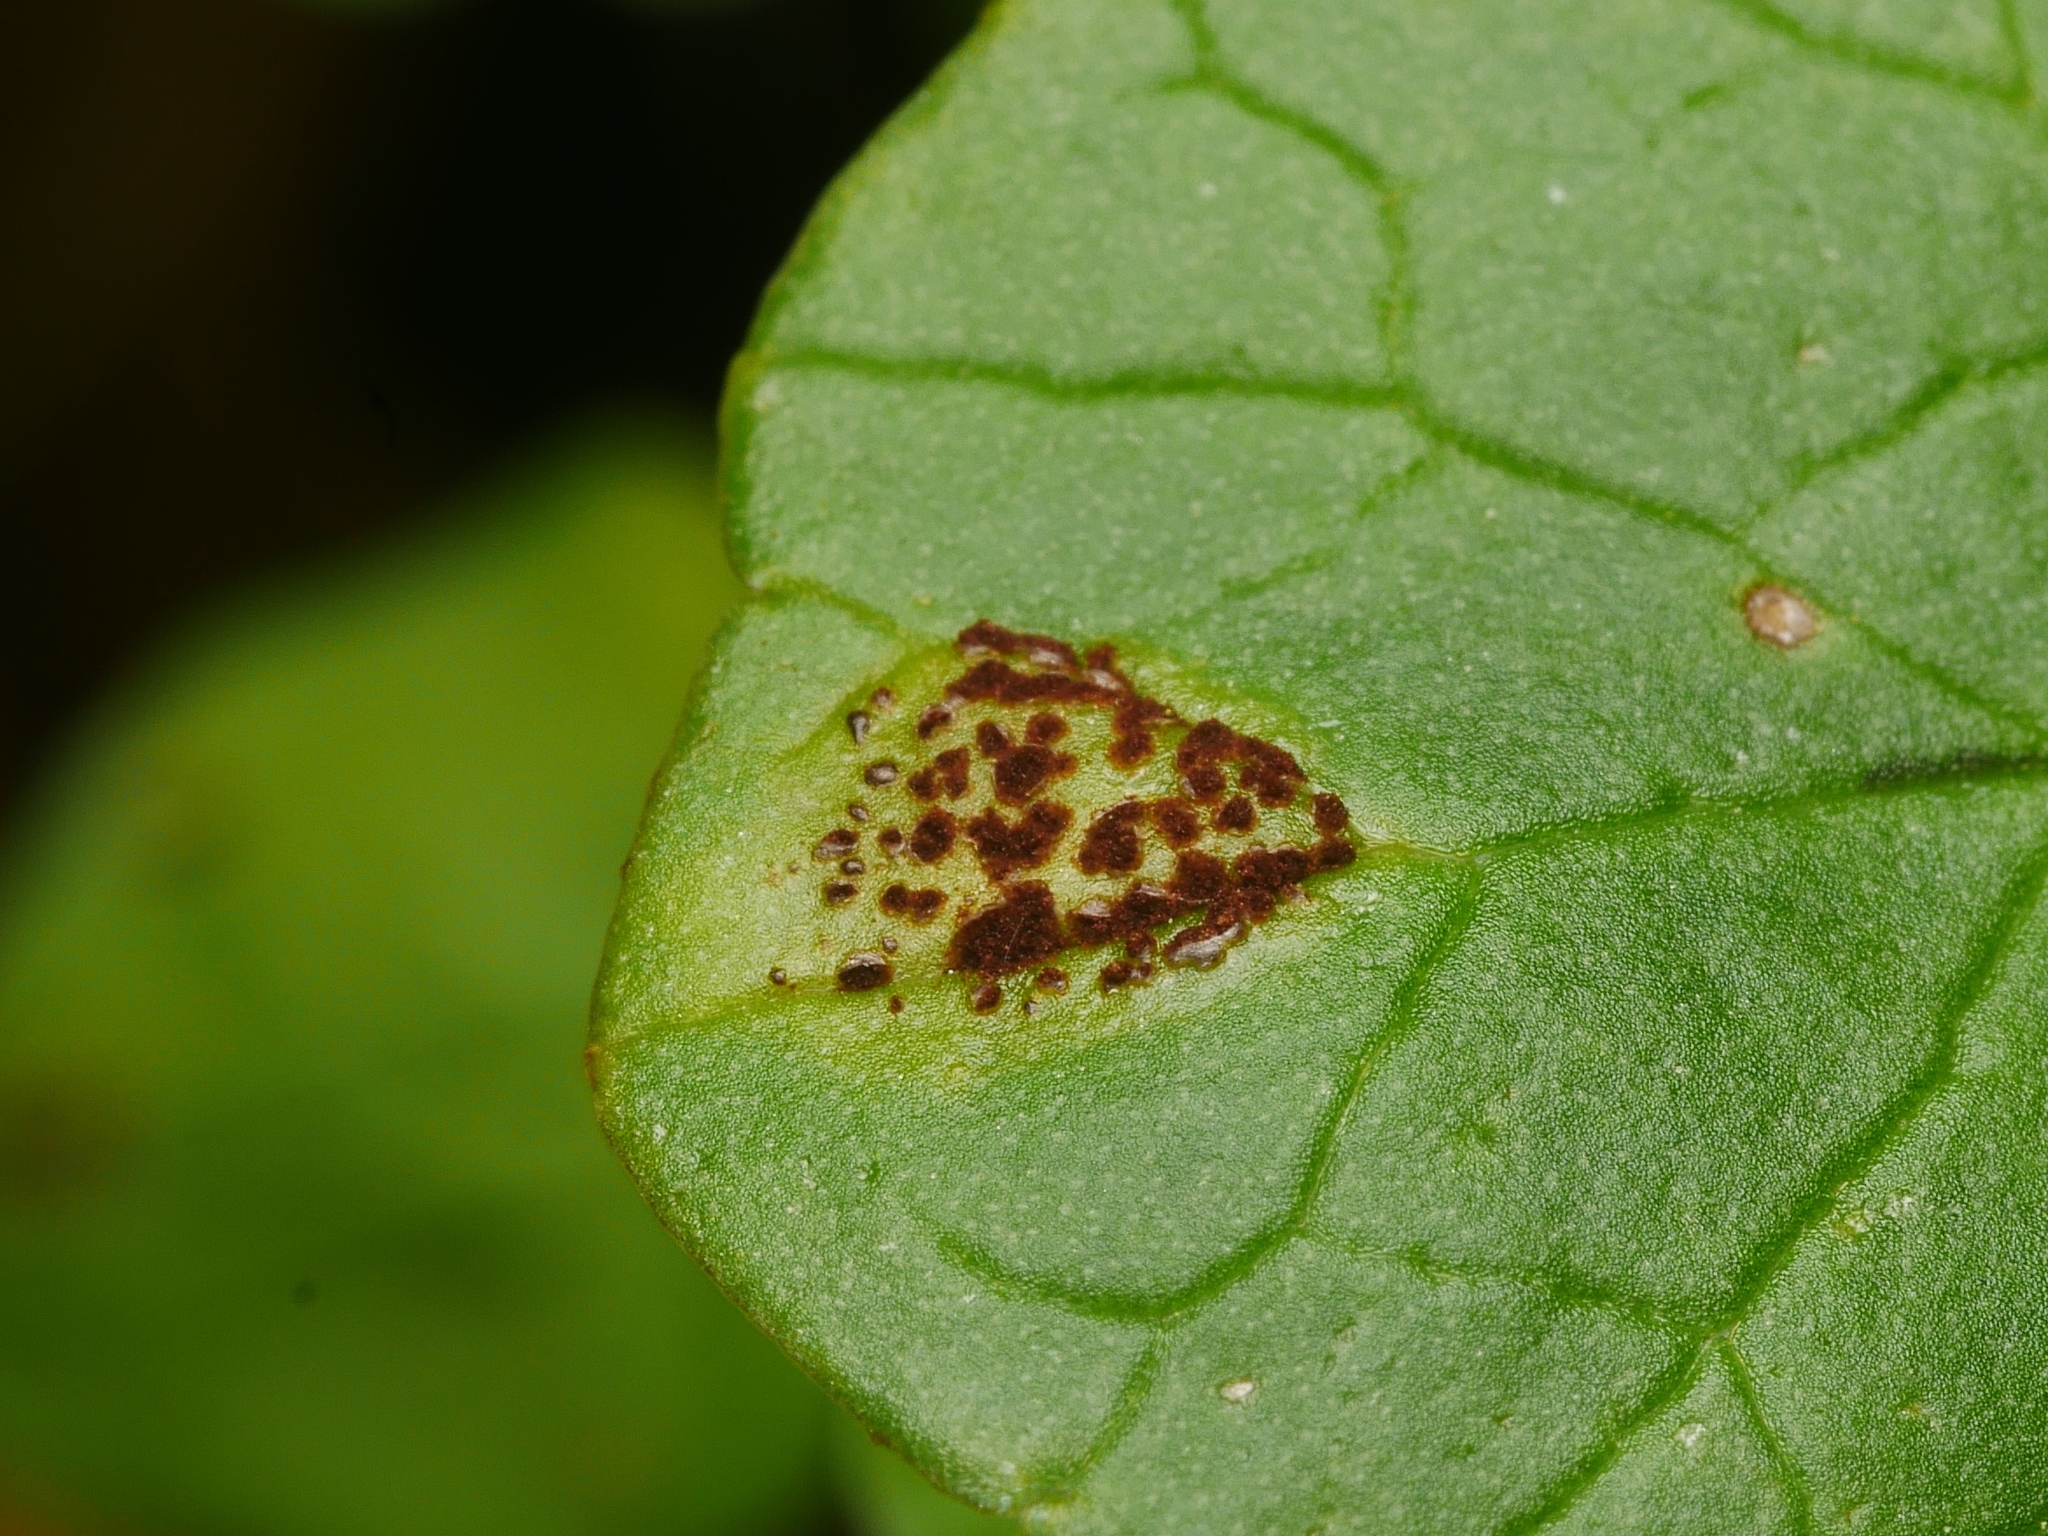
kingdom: Fungi
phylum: Basidiomycota
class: Pucciniomycetes
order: Pucciniales
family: Pucciniaceae
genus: Uromyces
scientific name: Uromyces ficariae
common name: Bitter chocolate rust
